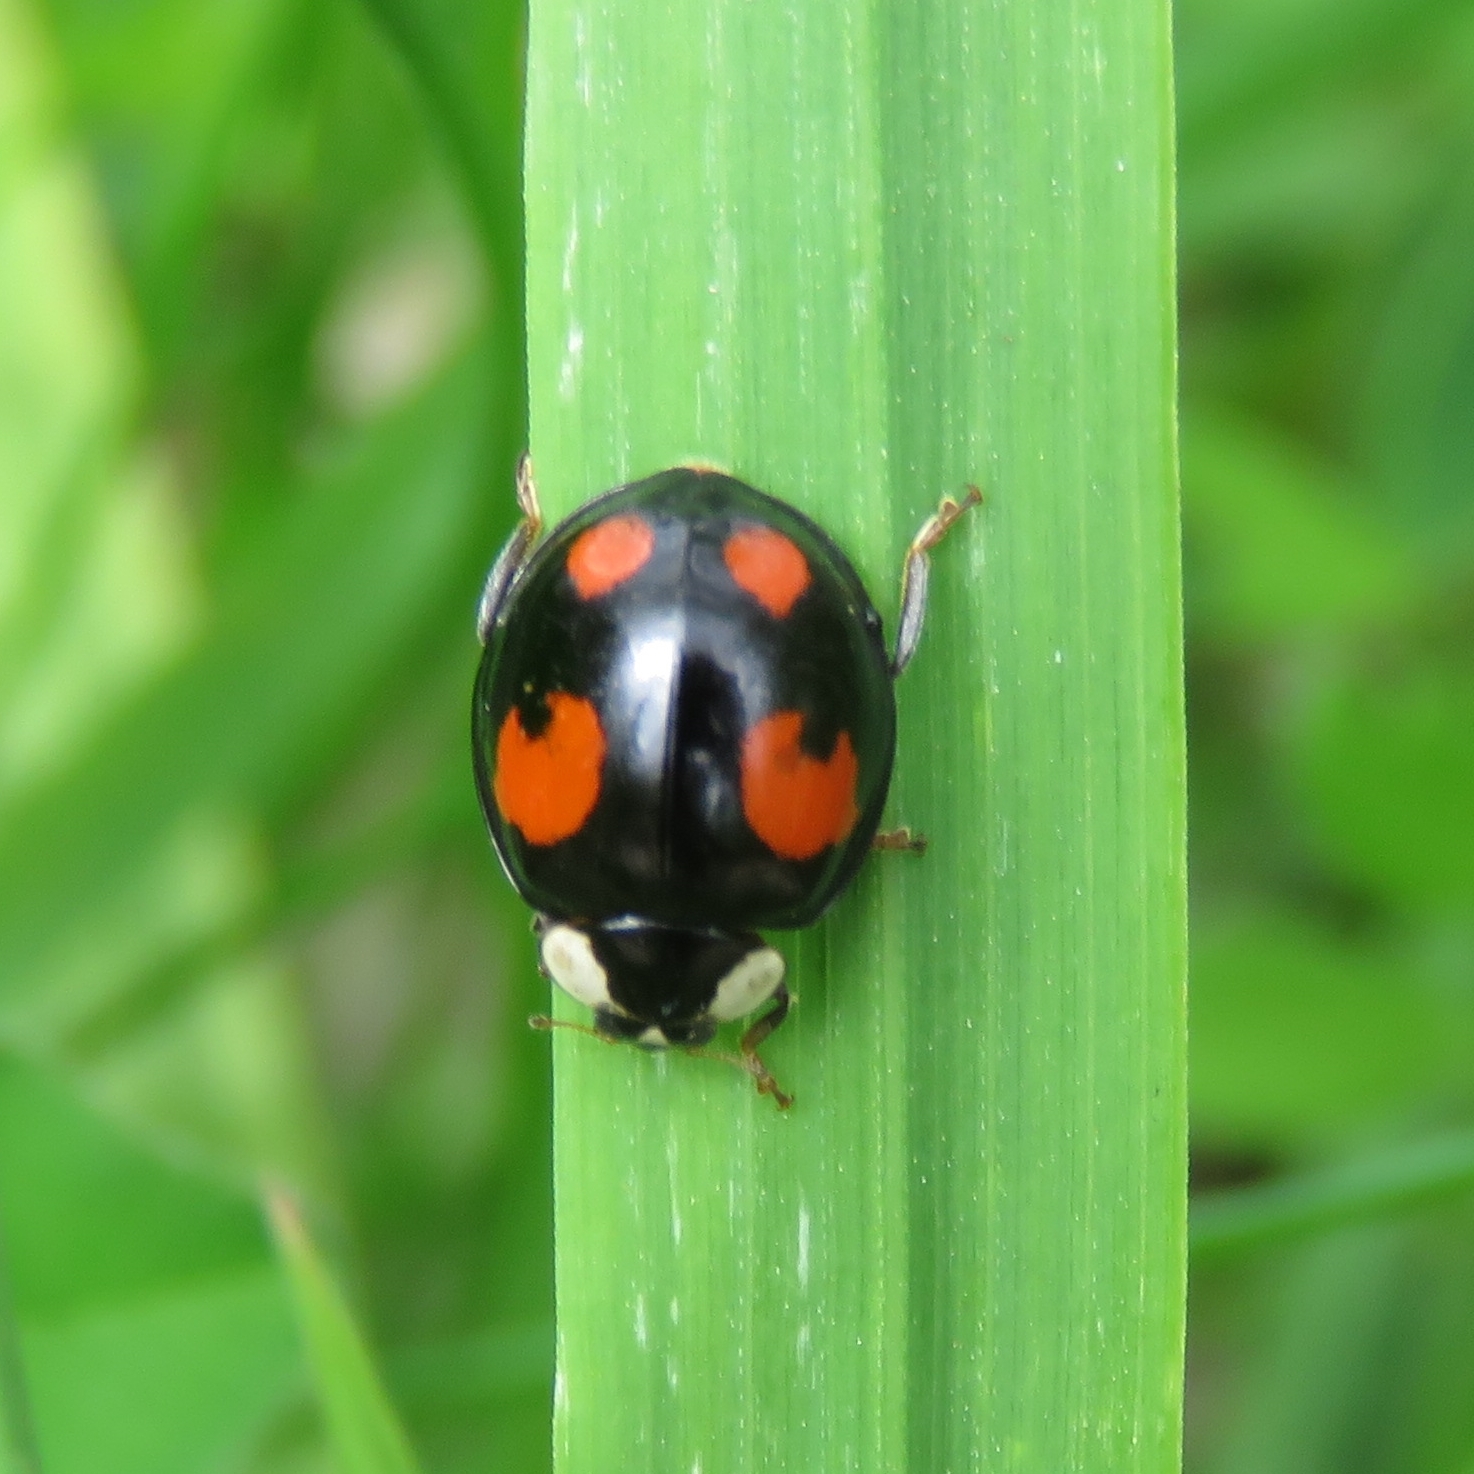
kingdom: Animalia
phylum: Arthropoda
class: Insecta
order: Coleoptera
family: Coccinellidae
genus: Harmonia
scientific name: Harmonia axyridis
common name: Harlequin ladybird
